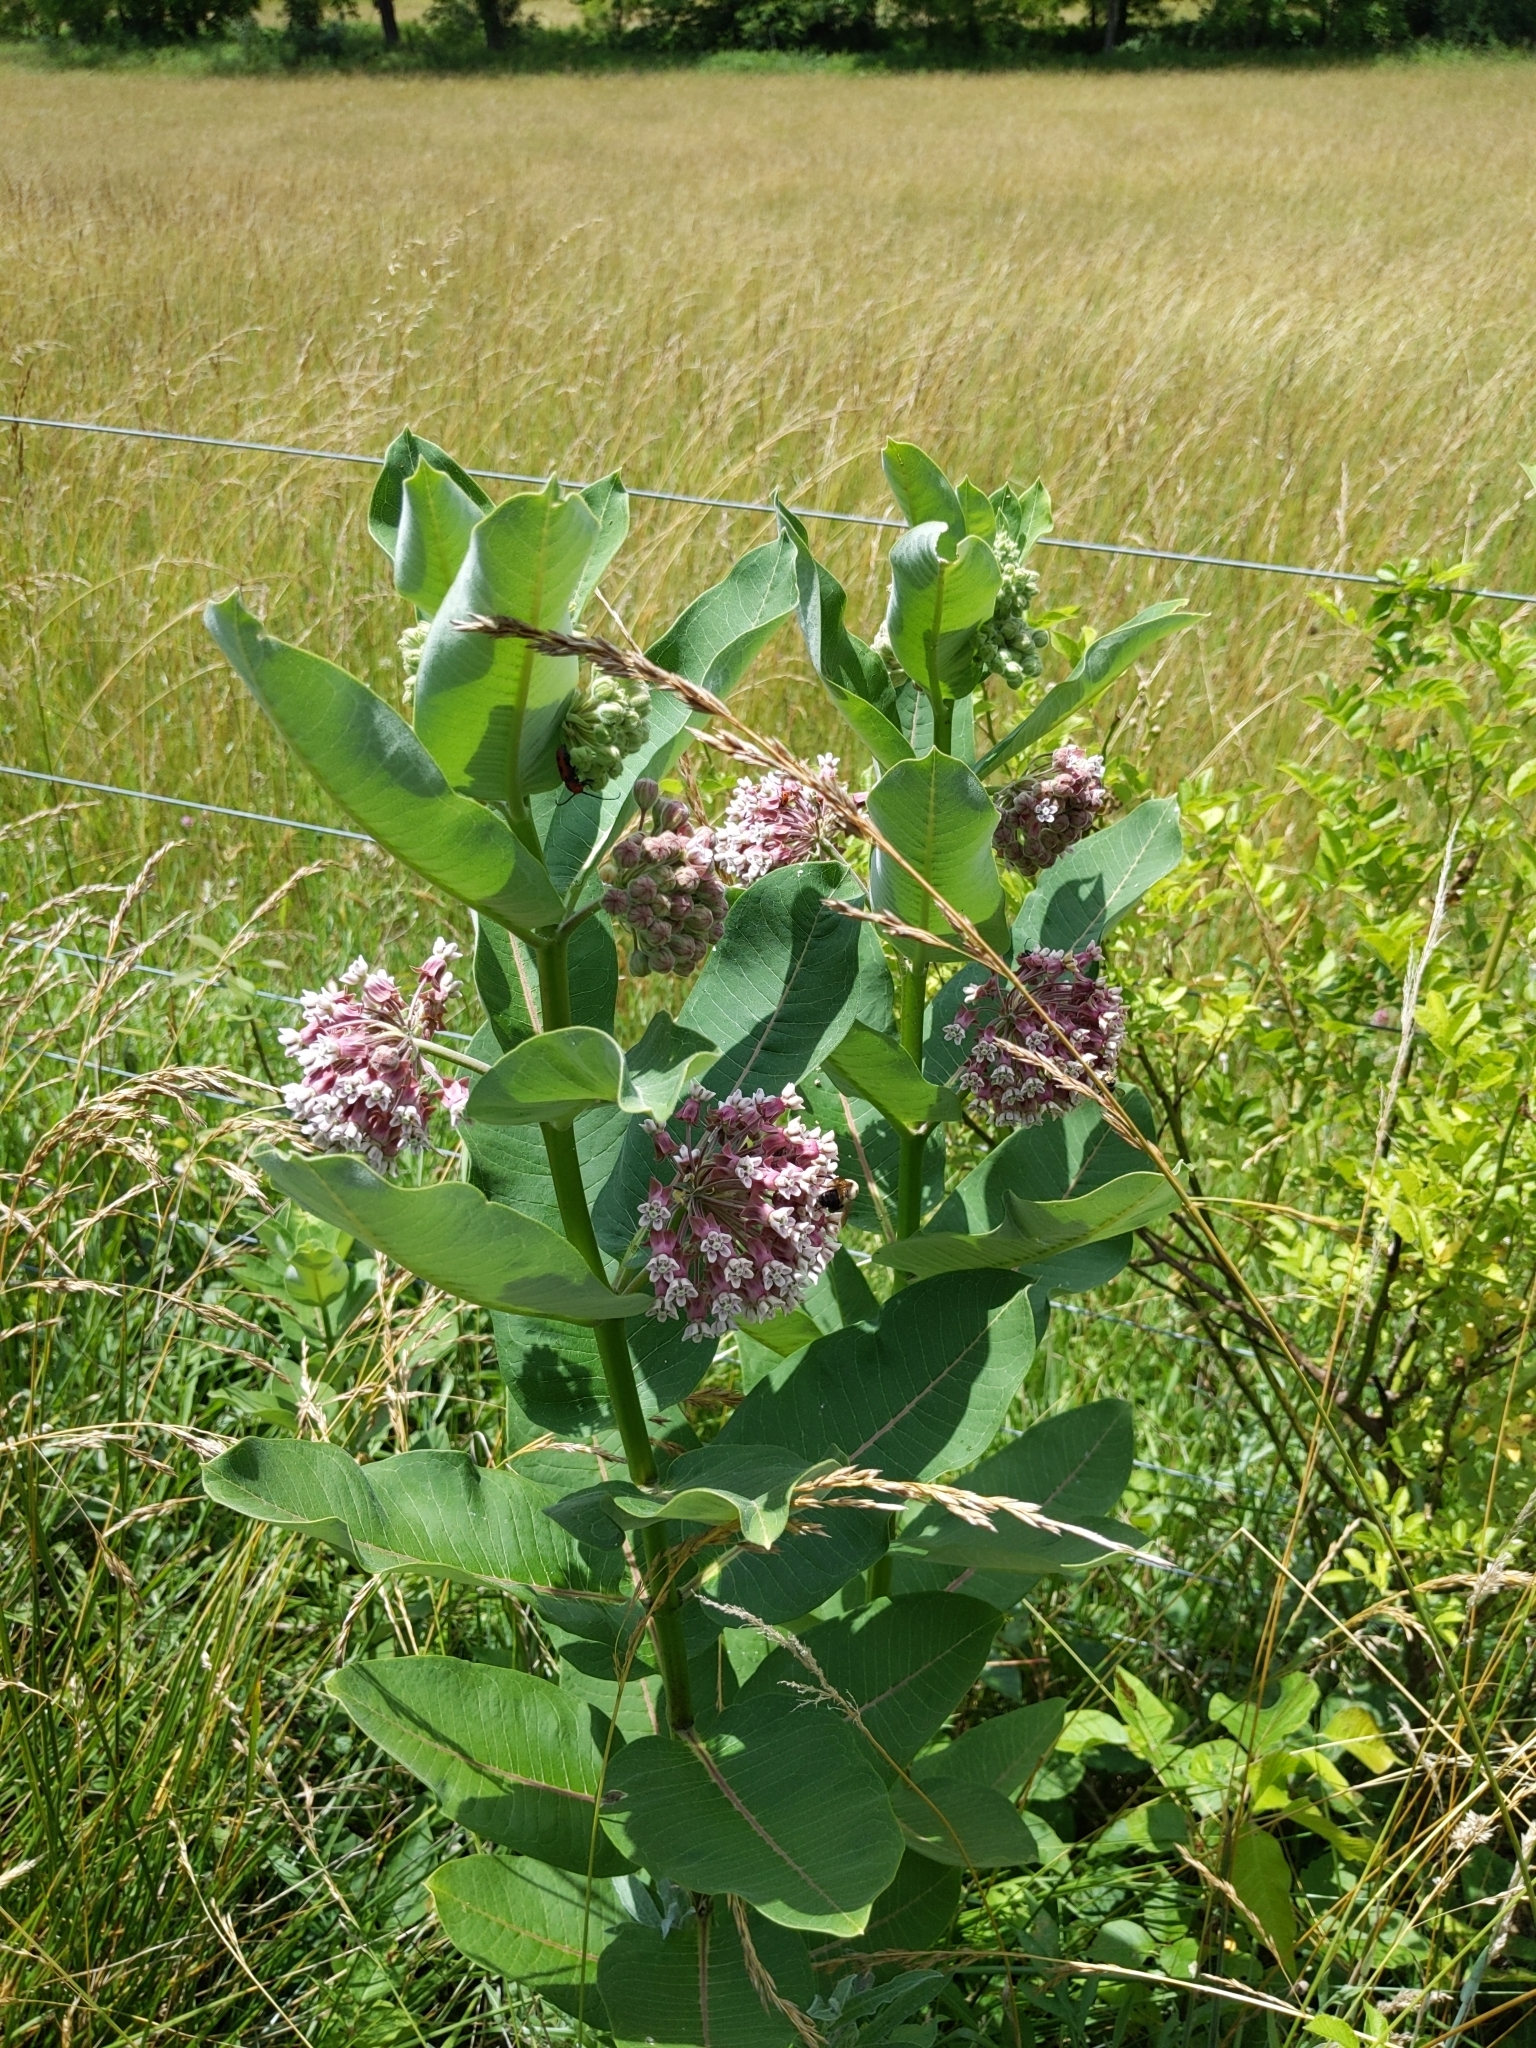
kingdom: Plantae
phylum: Tracheophyta
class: Magnoliopsida
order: Gentianales
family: Apocynaceae
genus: Asclepias
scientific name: Asclepias syriaca
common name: Common milkweed
